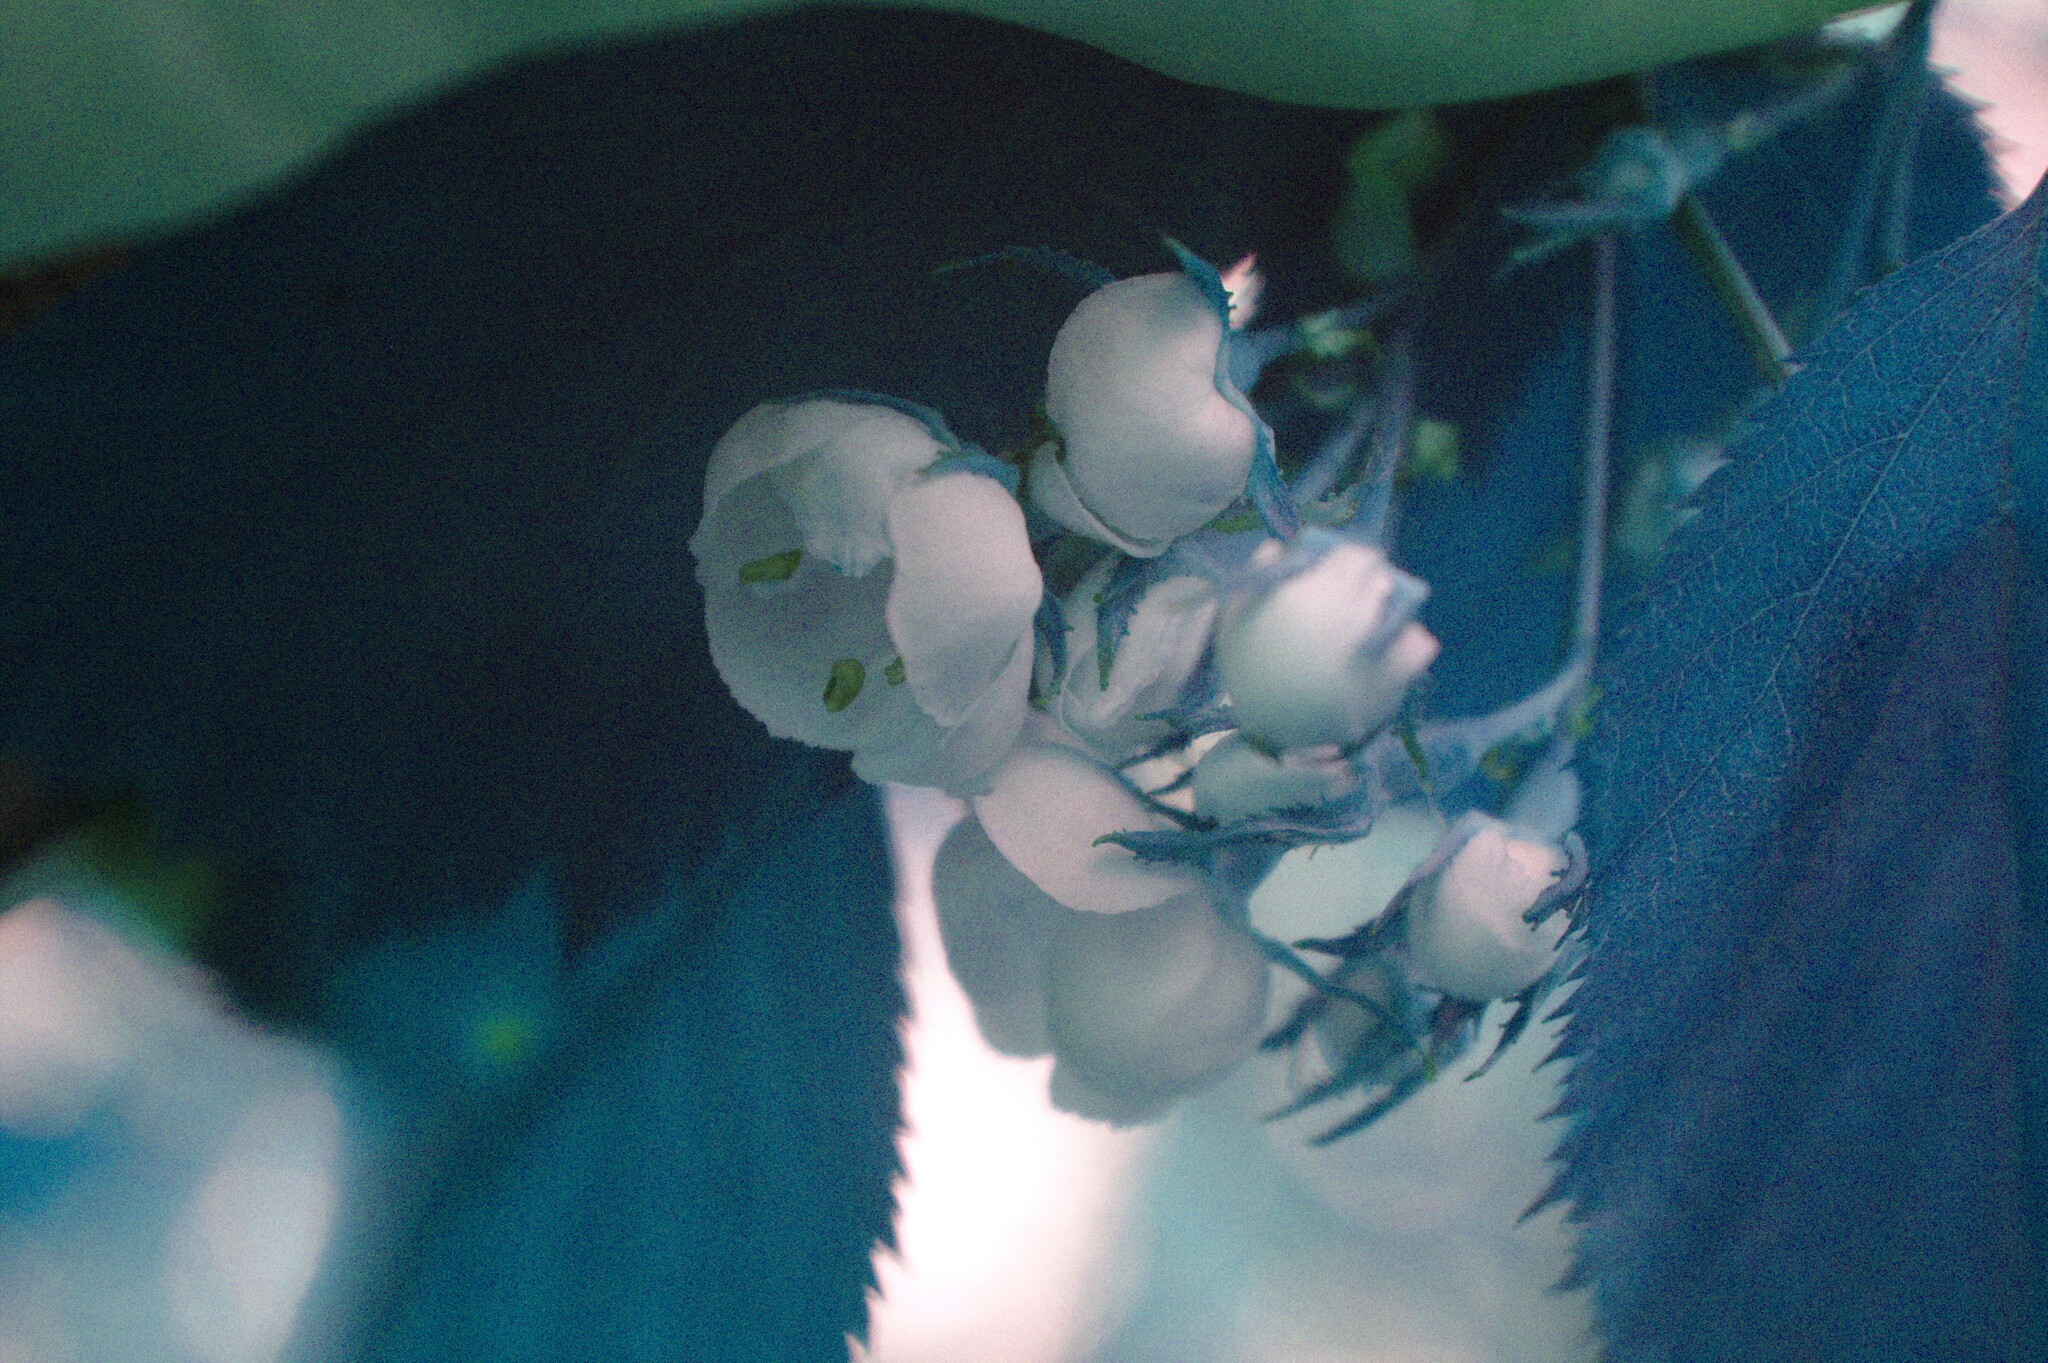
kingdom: Plantae
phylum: Tracheophyta
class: Magnoliopsida
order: Rosales
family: Rosaceae
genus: Crataegus
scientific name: Crataegus holmesiana
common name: Holmes' hawthorn
